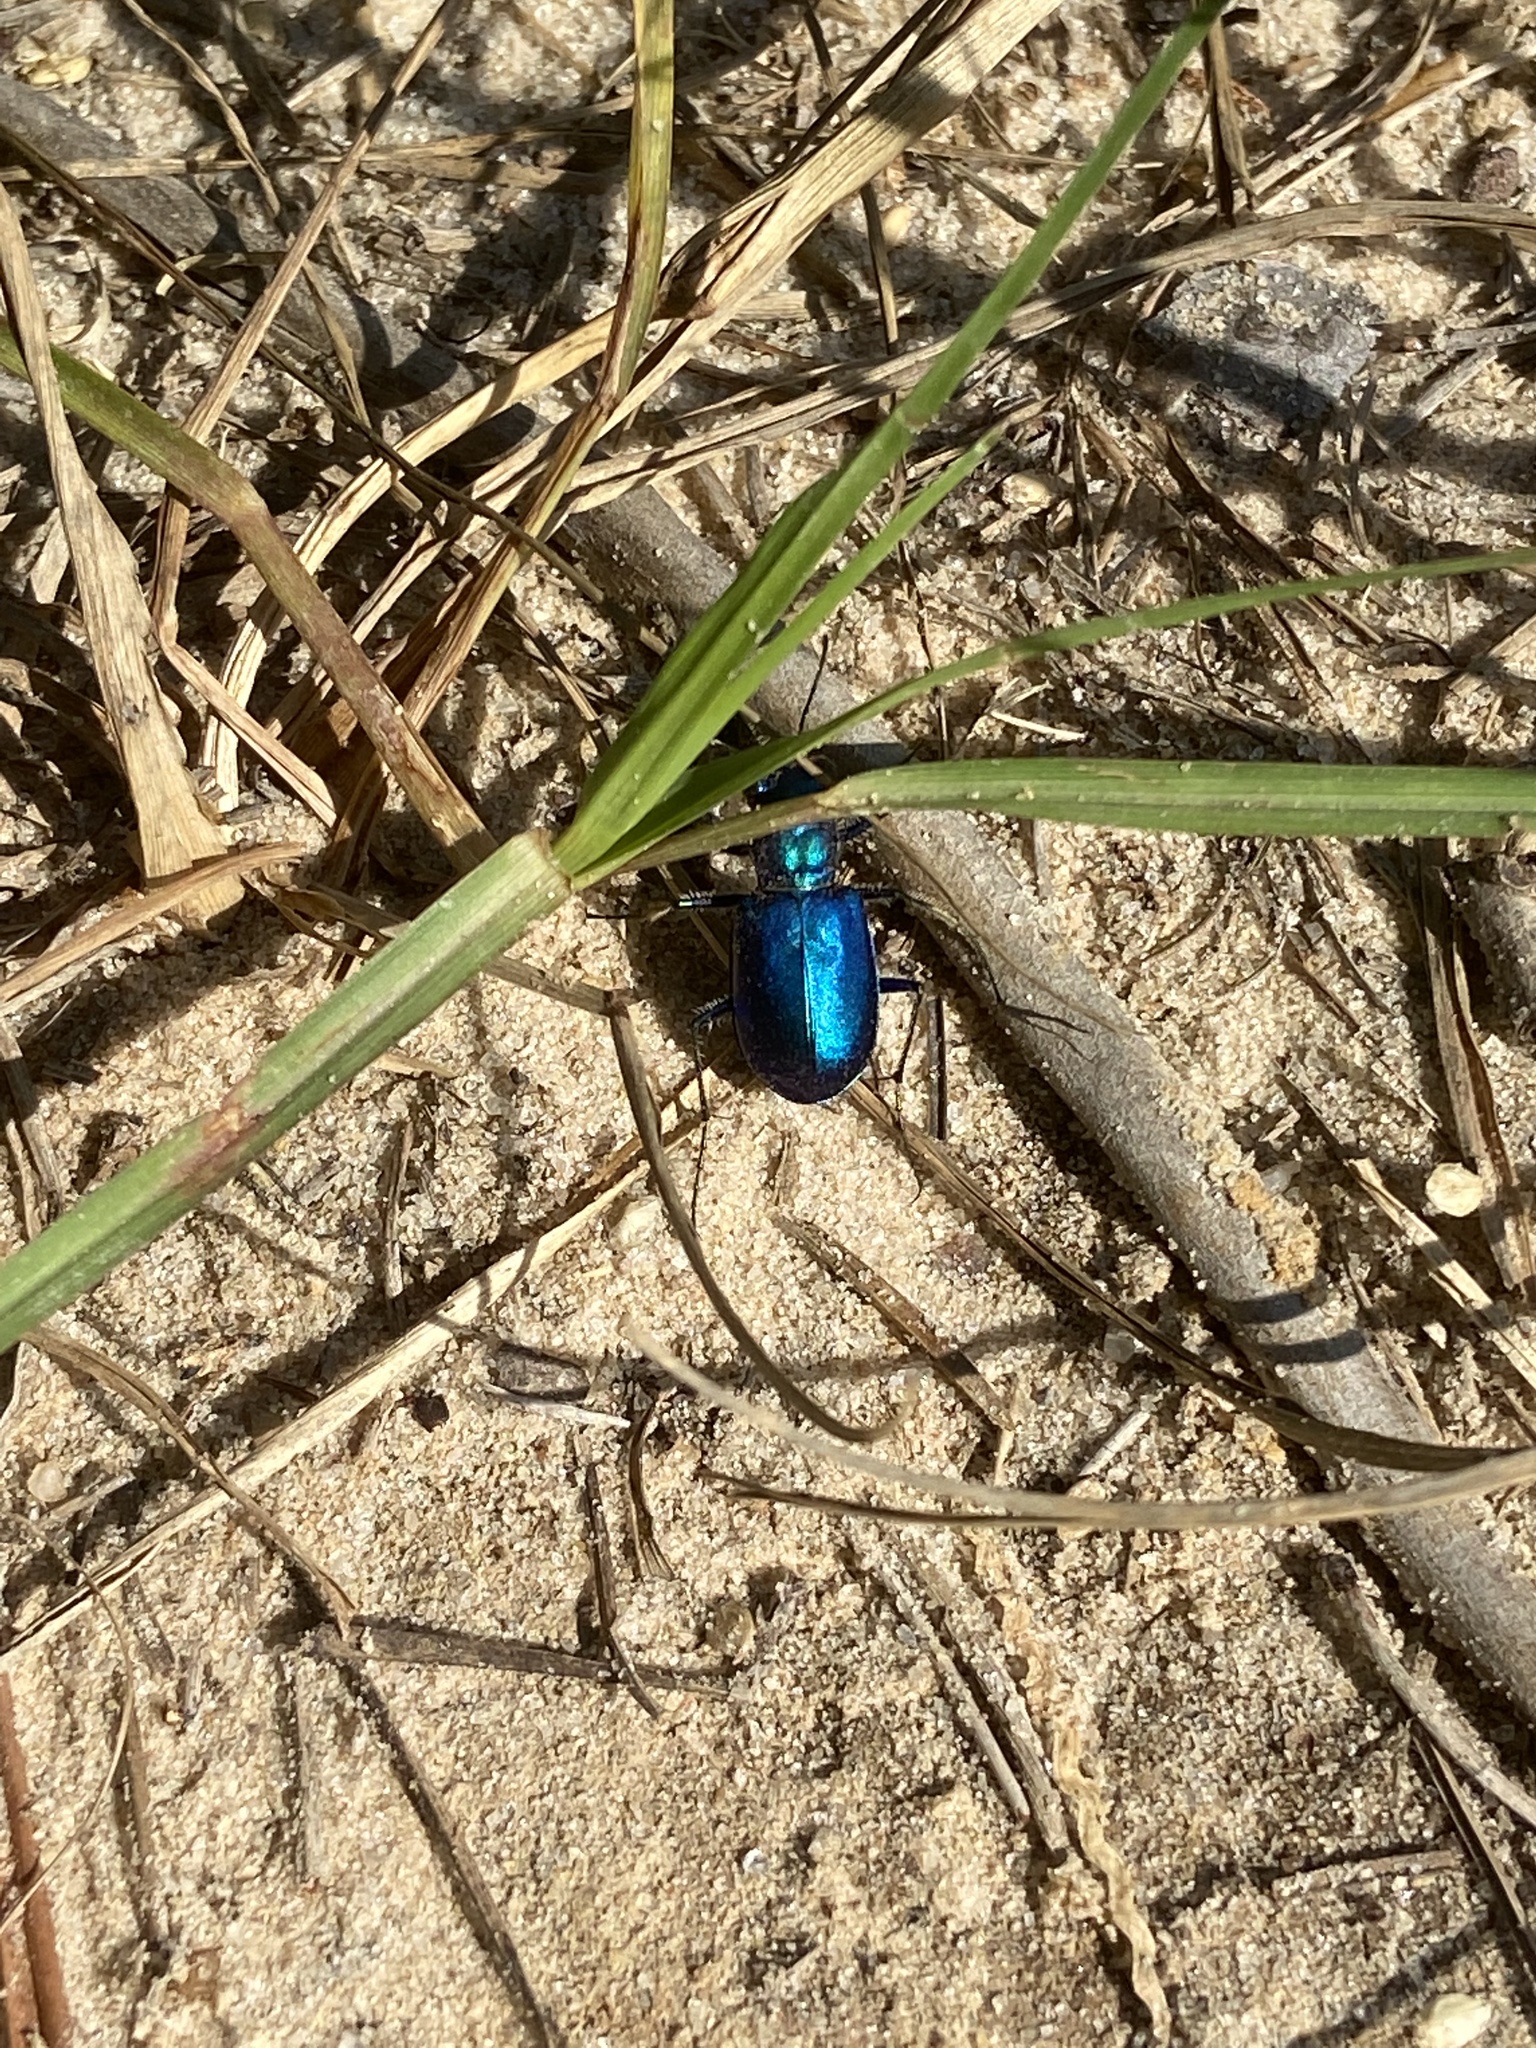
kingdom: Animalia
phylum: Arthropoda
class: Insecta
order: Coleoptera
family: Carabidae
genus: Cicindela
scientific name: Cicindela scutellaris
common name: Festive tiger beetle
